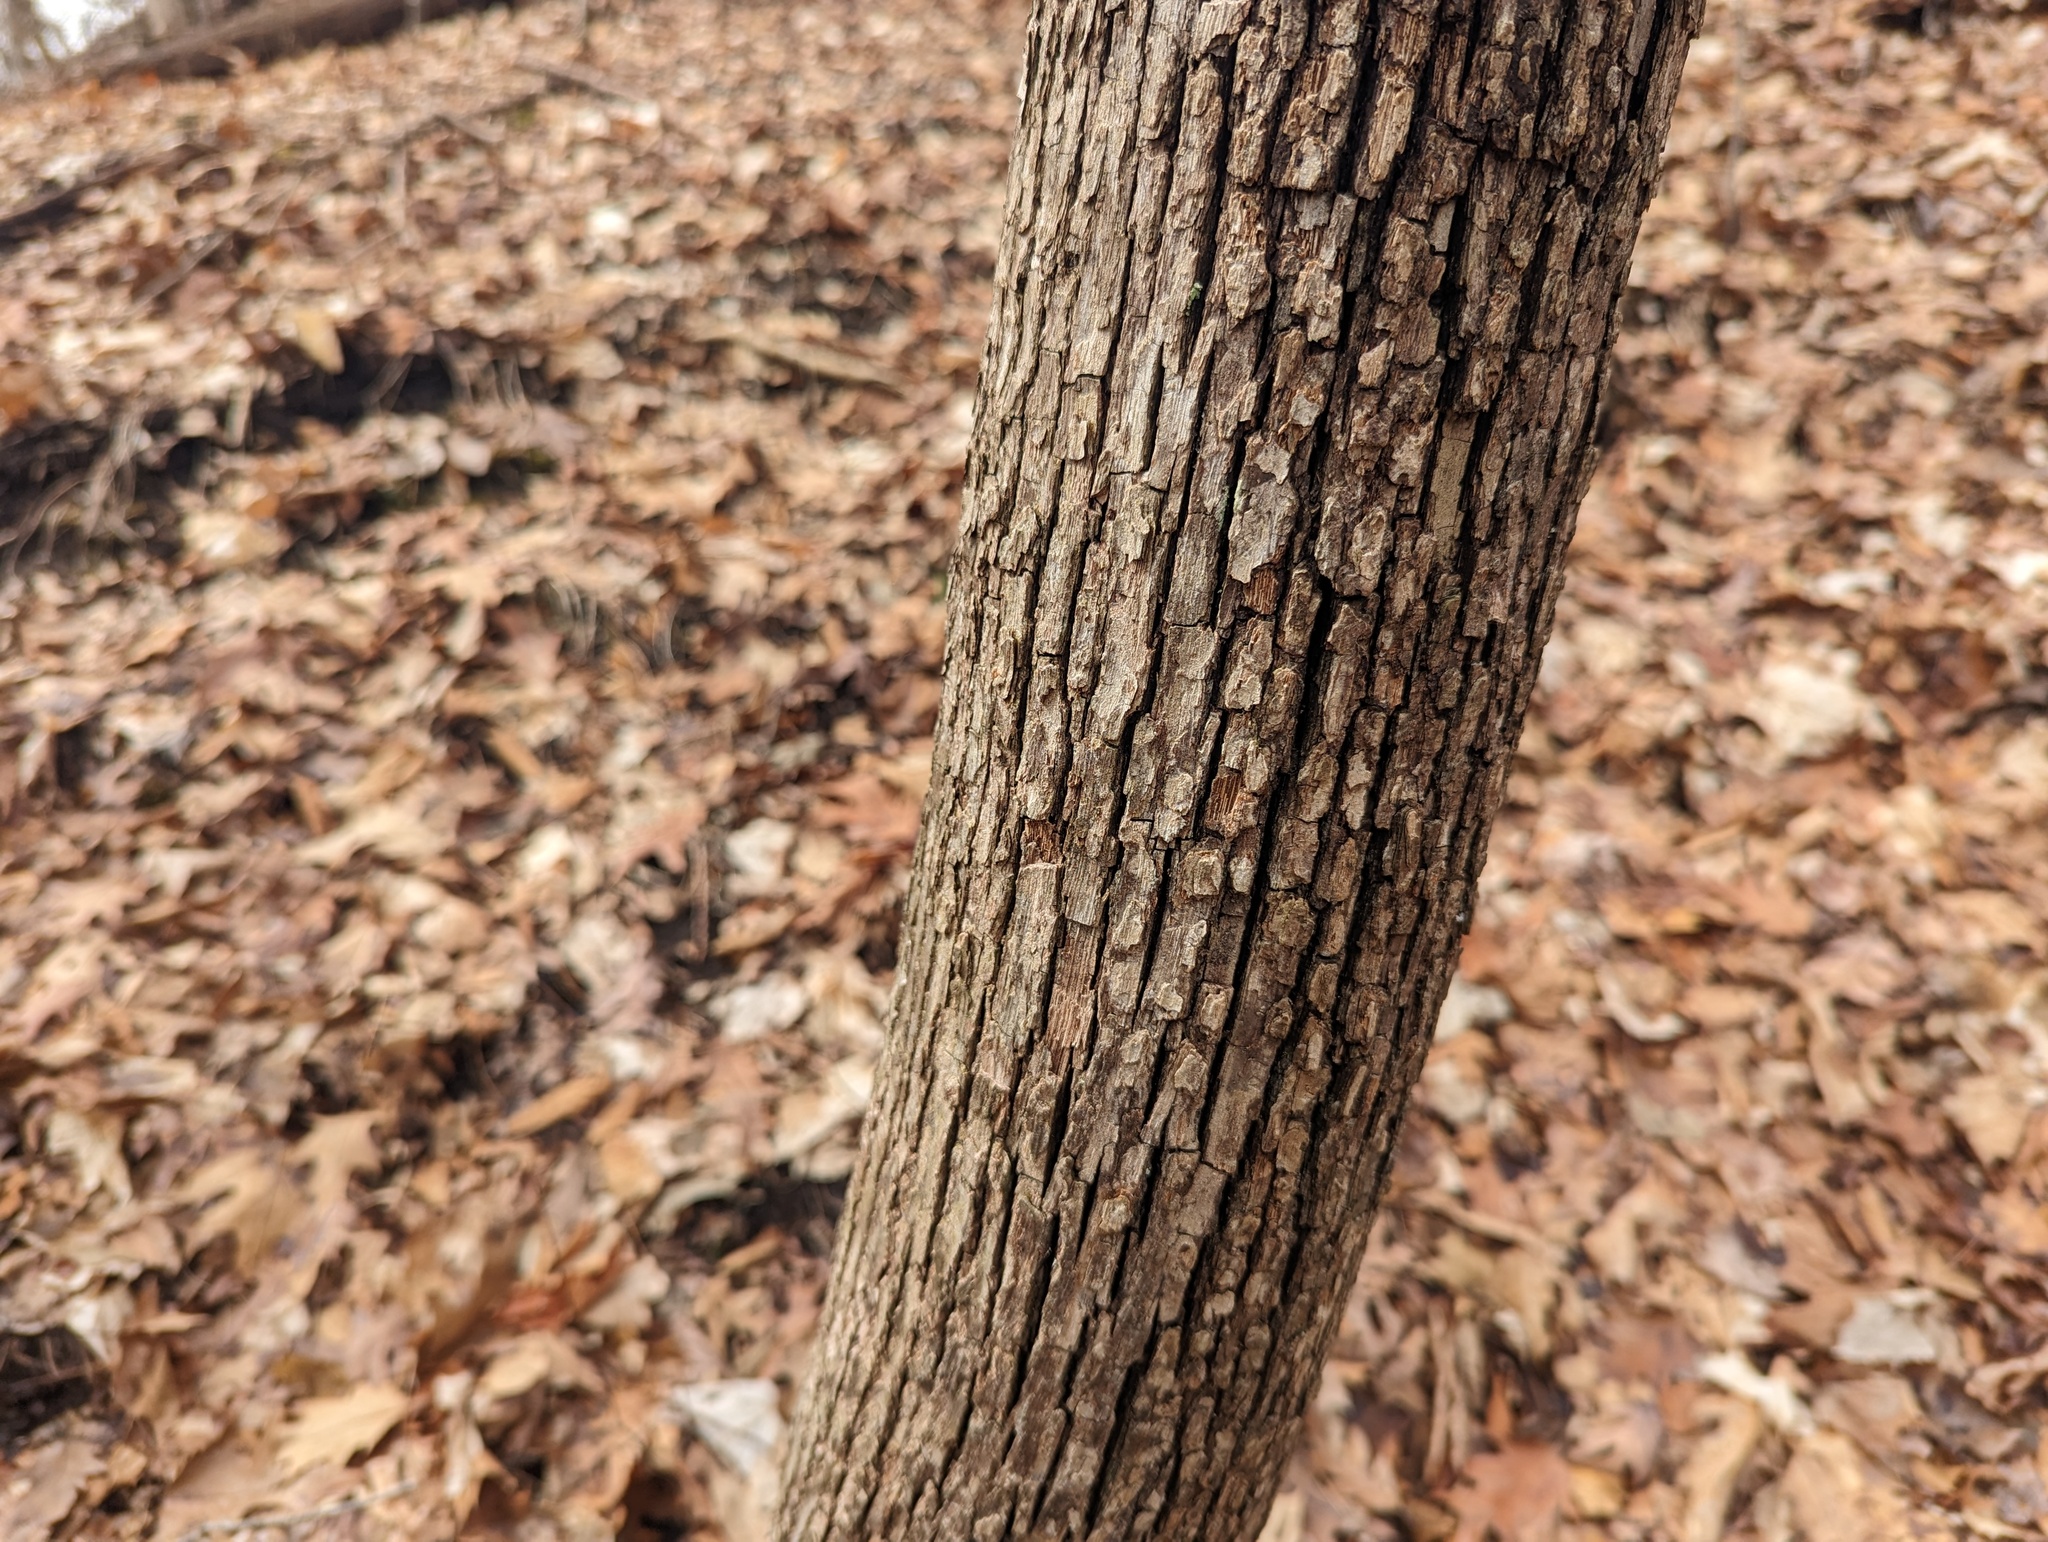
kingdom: Plantae
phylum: Tracheophyta
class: Magnoliopsida
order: Fagales
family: Betulaceae
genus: Ostrya
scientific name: Ostrya virginiana
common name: Ironwood
